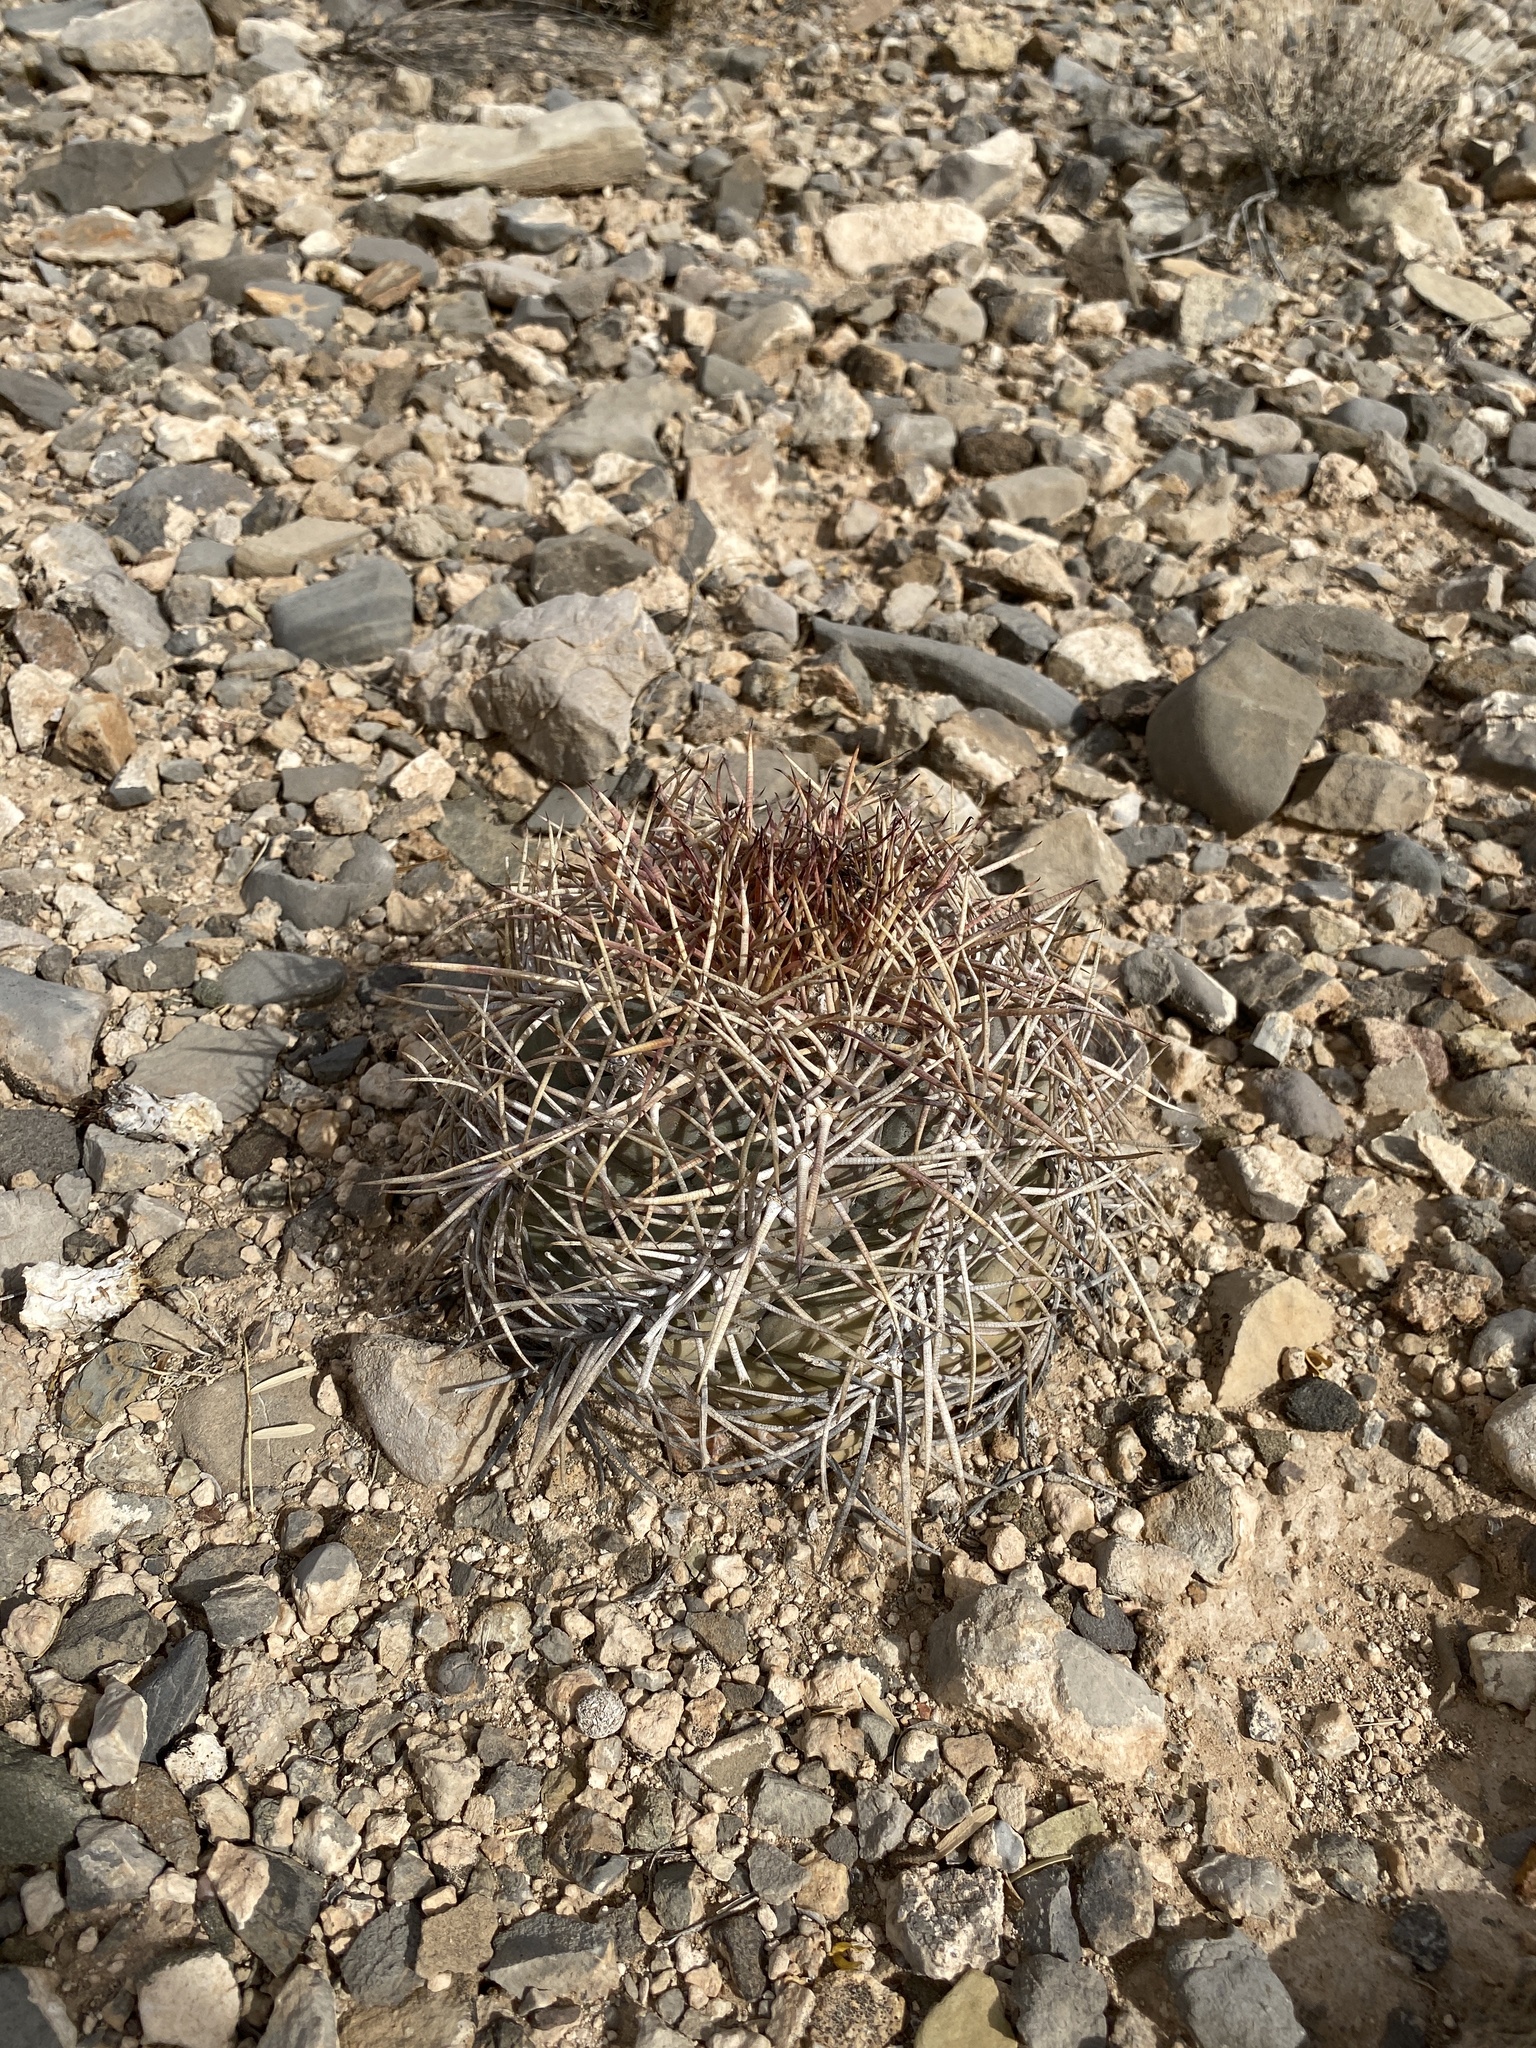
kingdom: Plantae
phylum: Tracheophyta
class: Magnoliopsida
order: Caryophyllales
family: Cactaceae
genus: Echinocactus
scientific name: Echinocactus horizonthalonius
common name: Devilshead
